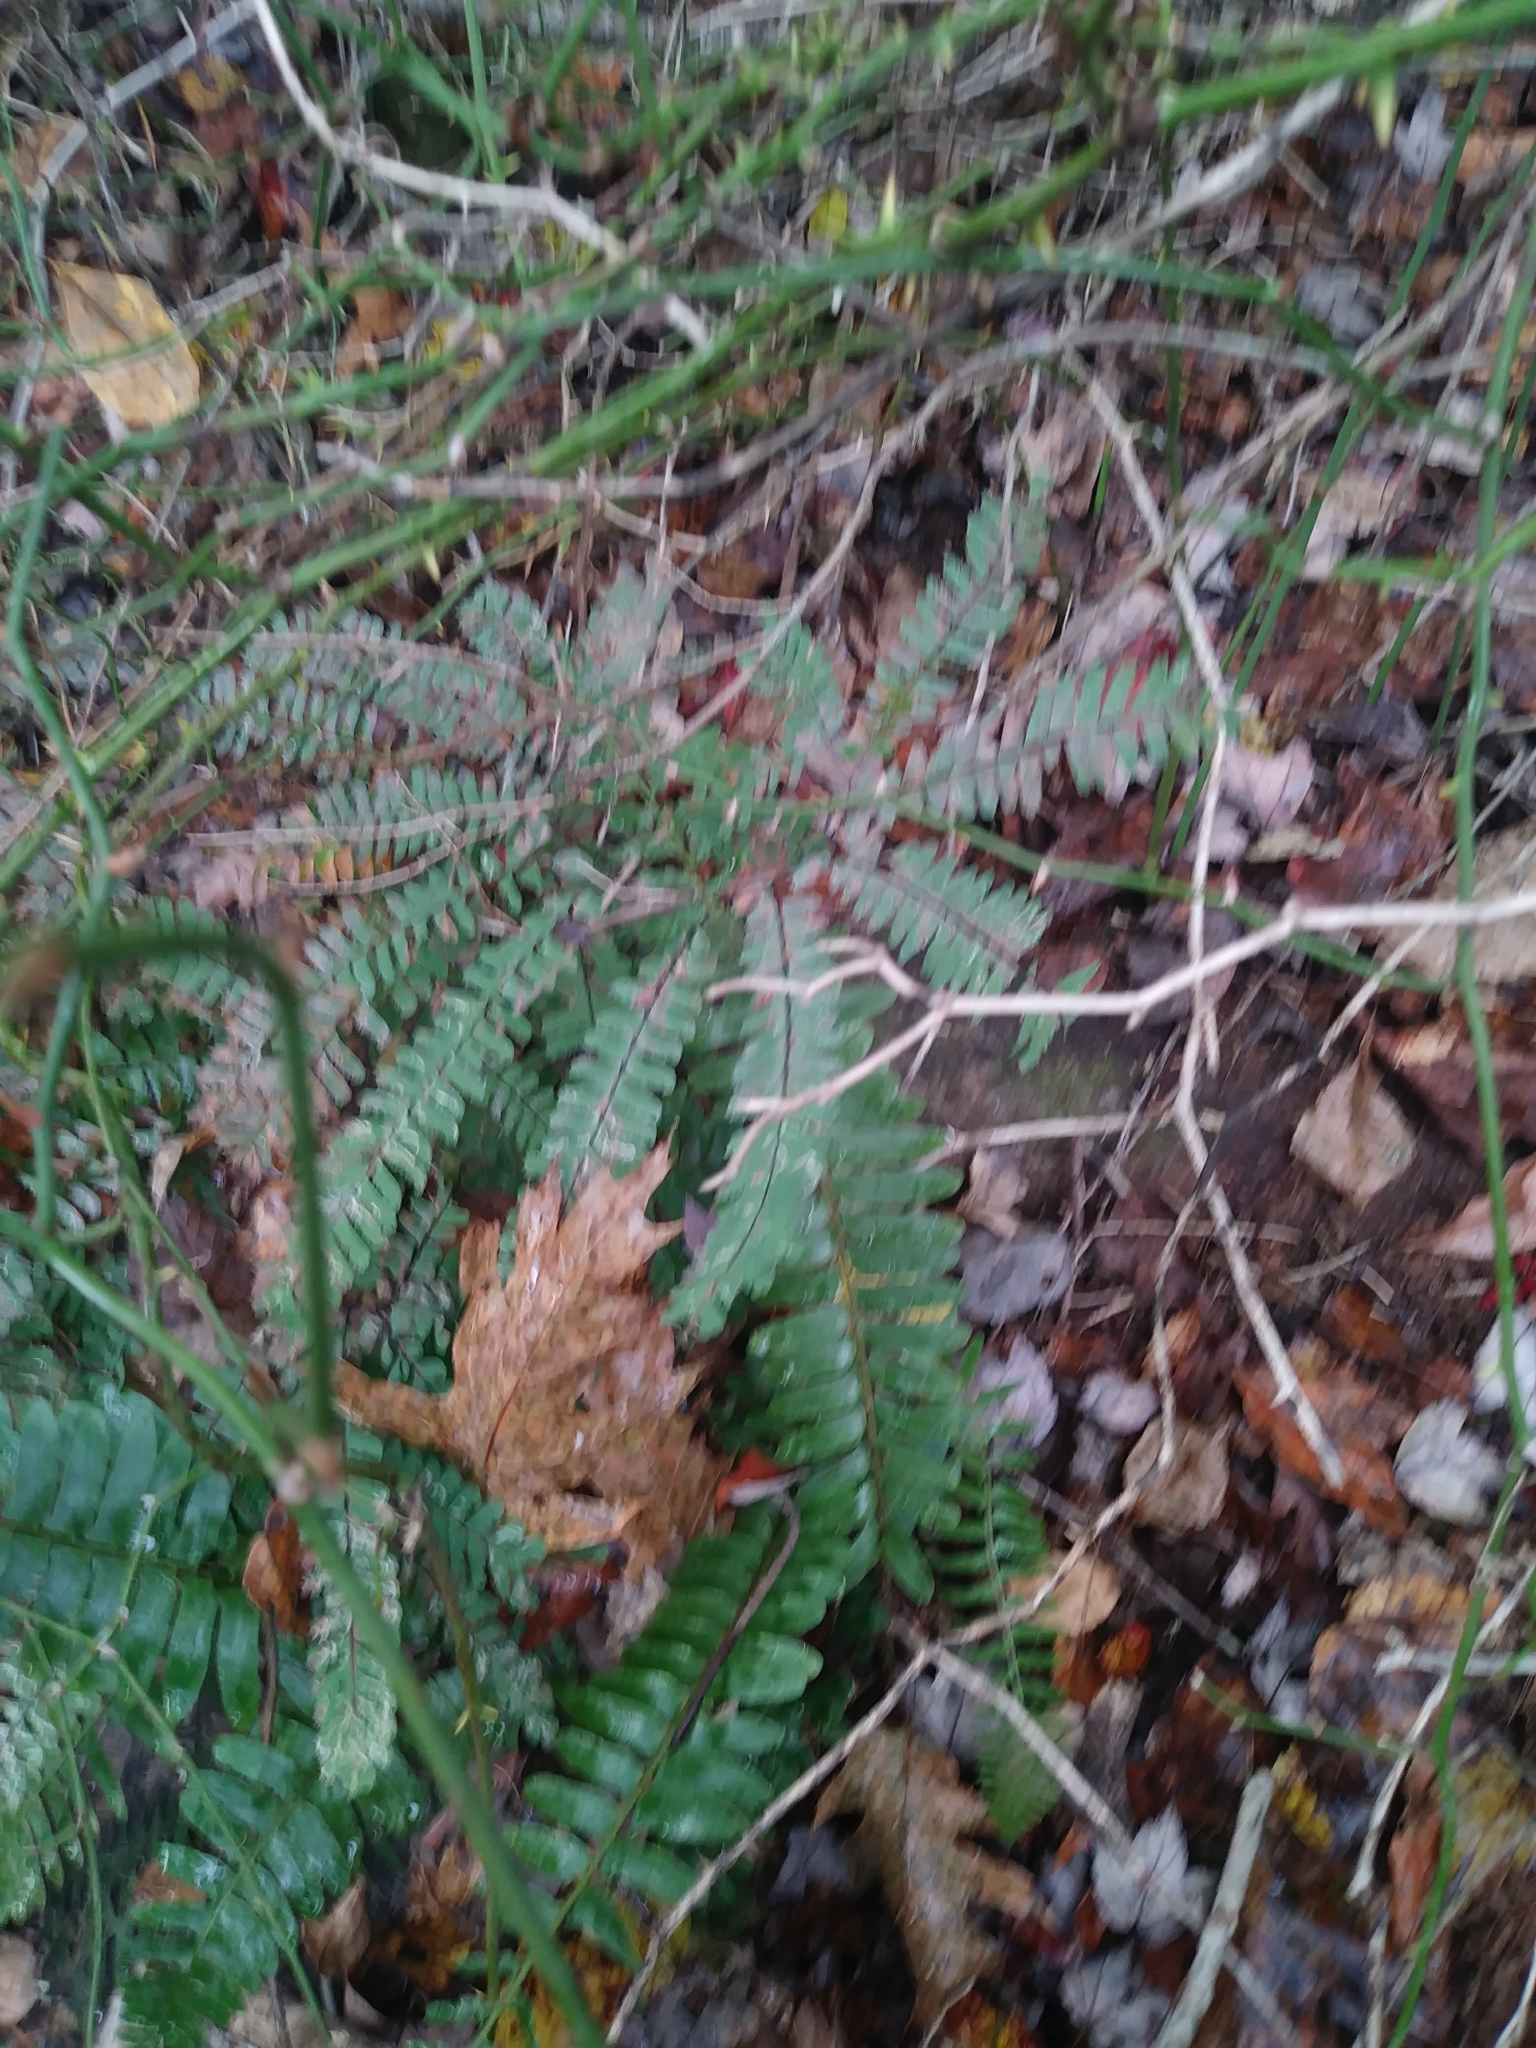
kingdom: Plantae
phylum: Tracheophyta
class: Polypodiopsida
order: Polypodiales
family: Pteridaceae
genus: Adiantum
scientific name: Adiantum pedatum
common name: Five-finger fern
